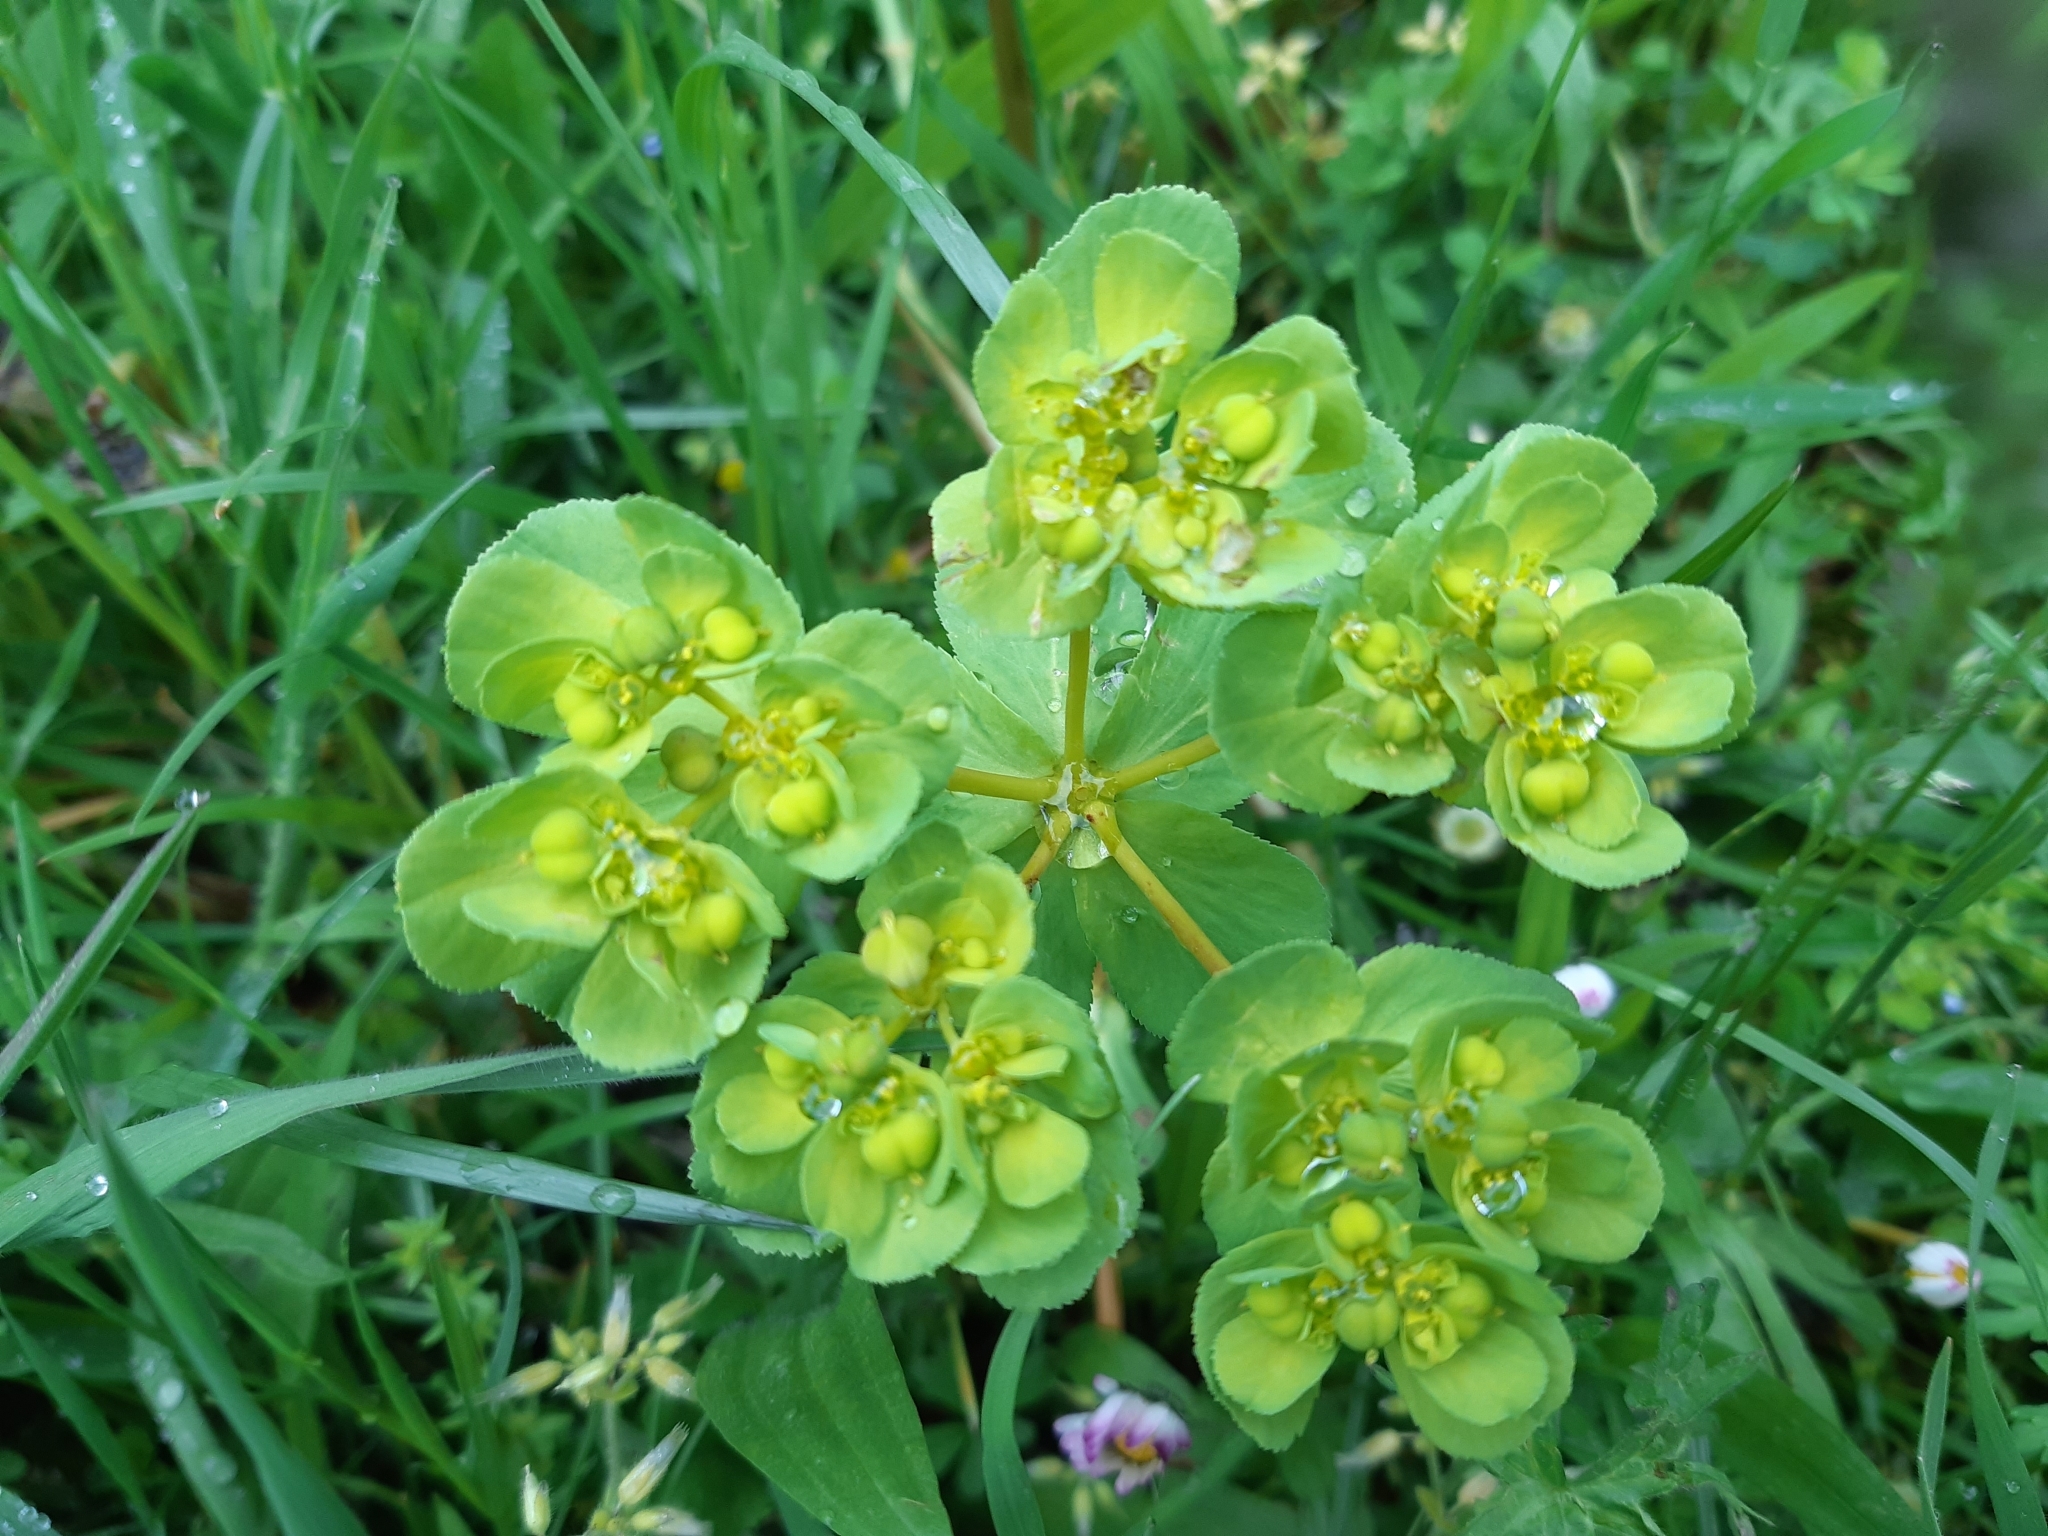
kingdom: Plantae
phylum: Tracheophyta
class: Magnoliopsida
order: Malpighiales
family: Euphorbiaceae
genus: Euphorbia
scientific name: Euphorbia helioscopia
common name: Sun spurge
